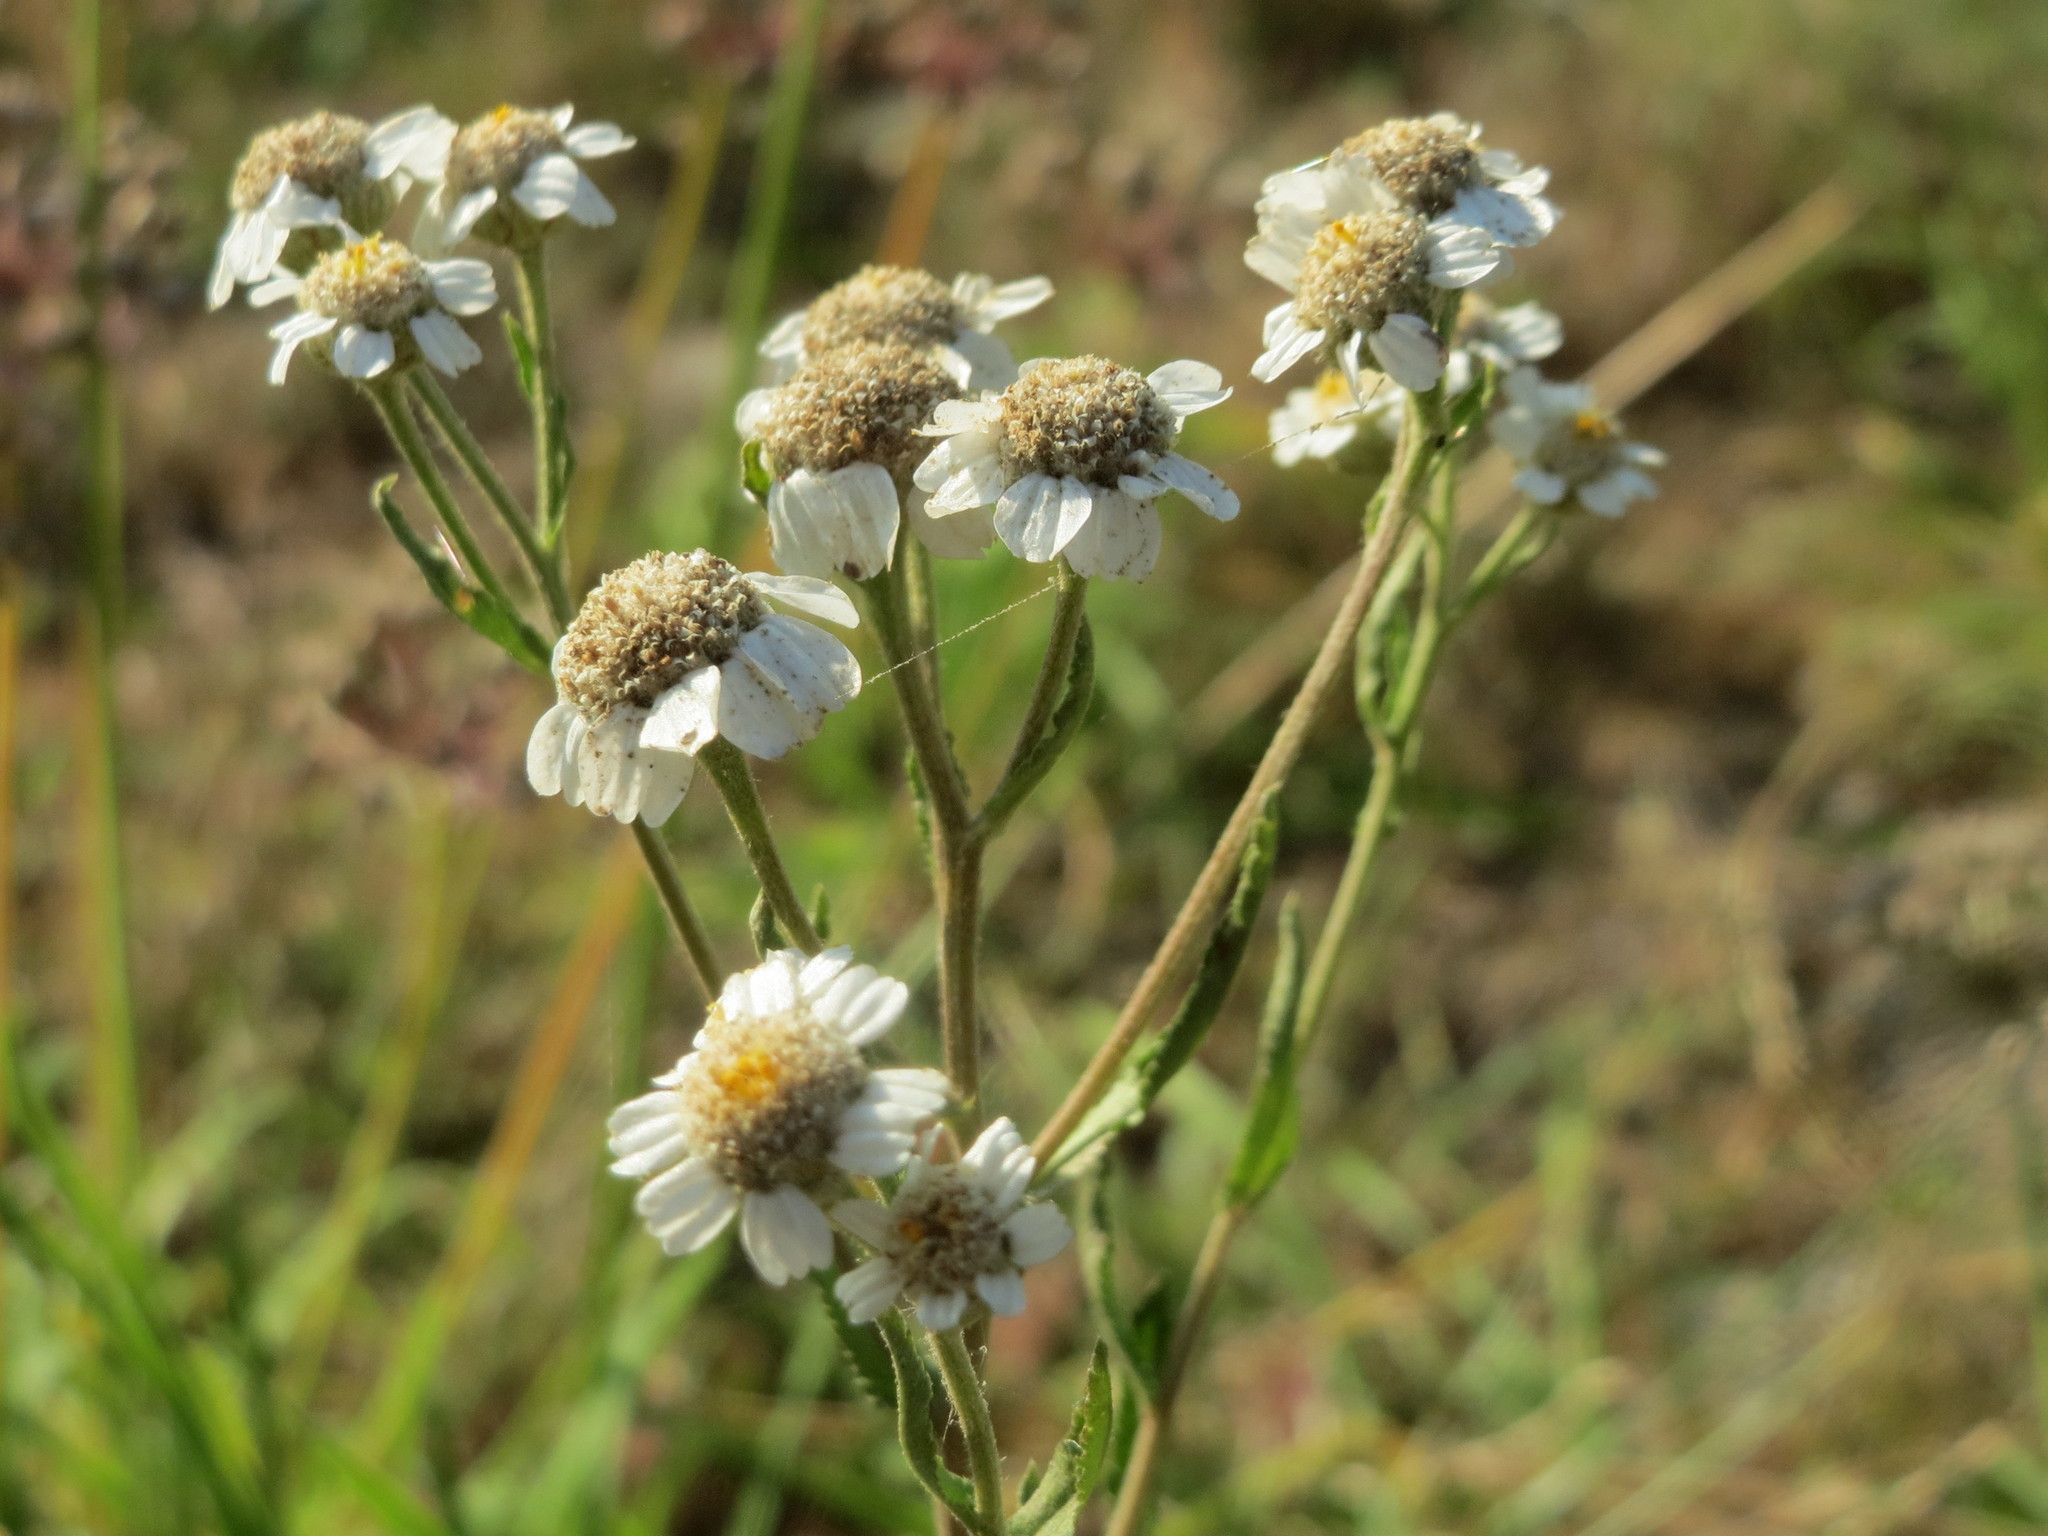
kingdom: Plantae
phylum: Tracheophyta
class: Magnoliopsida
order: Asterales
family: Asteraceae
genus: Achillea
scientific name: Achillea ptarmica
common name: Sneezeweed
